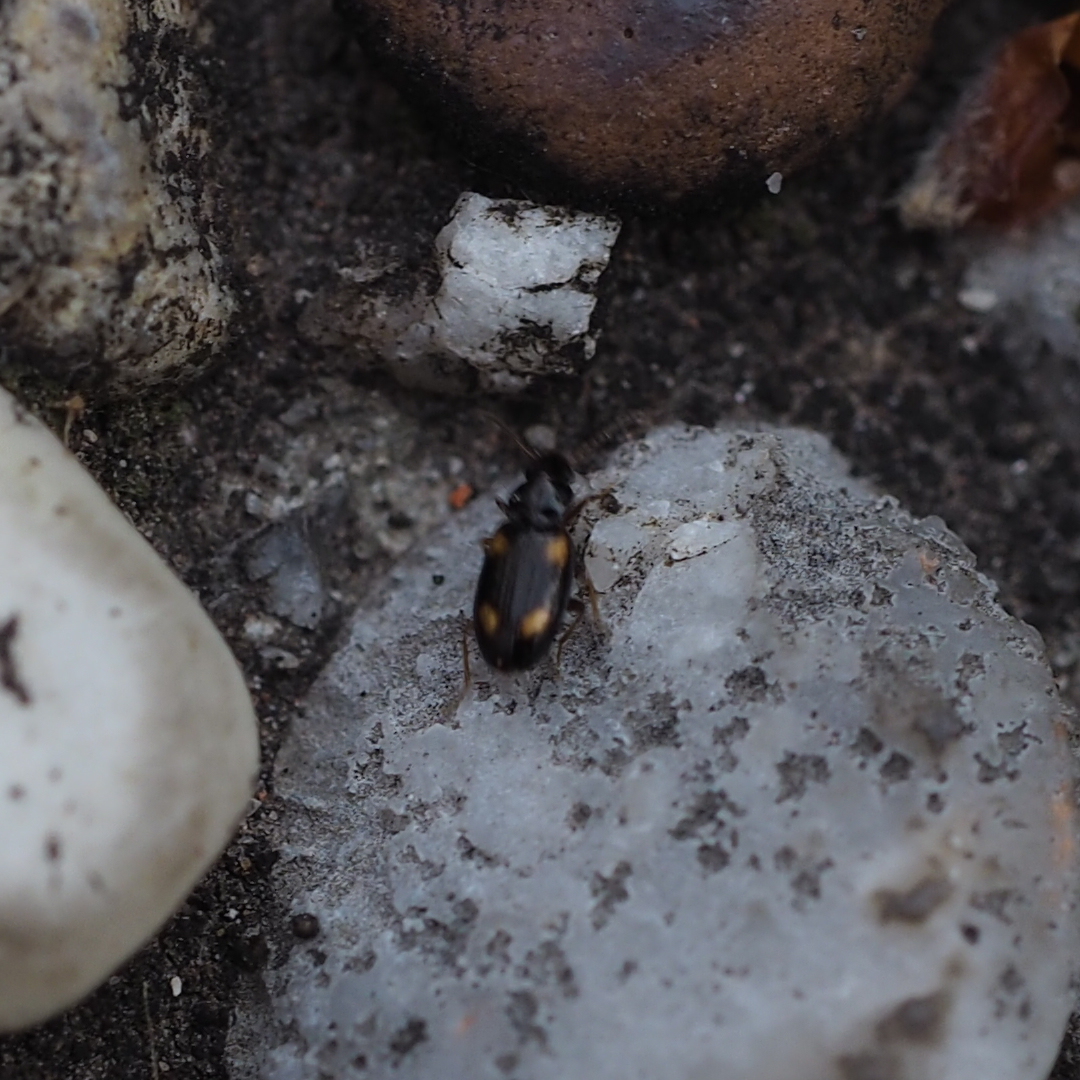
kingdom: Animalia
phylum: Arthropoda
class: Insecta
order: Coleoptera
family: Carabidae
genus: Elaphropus
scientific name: Elaphropus quadrisignatus
